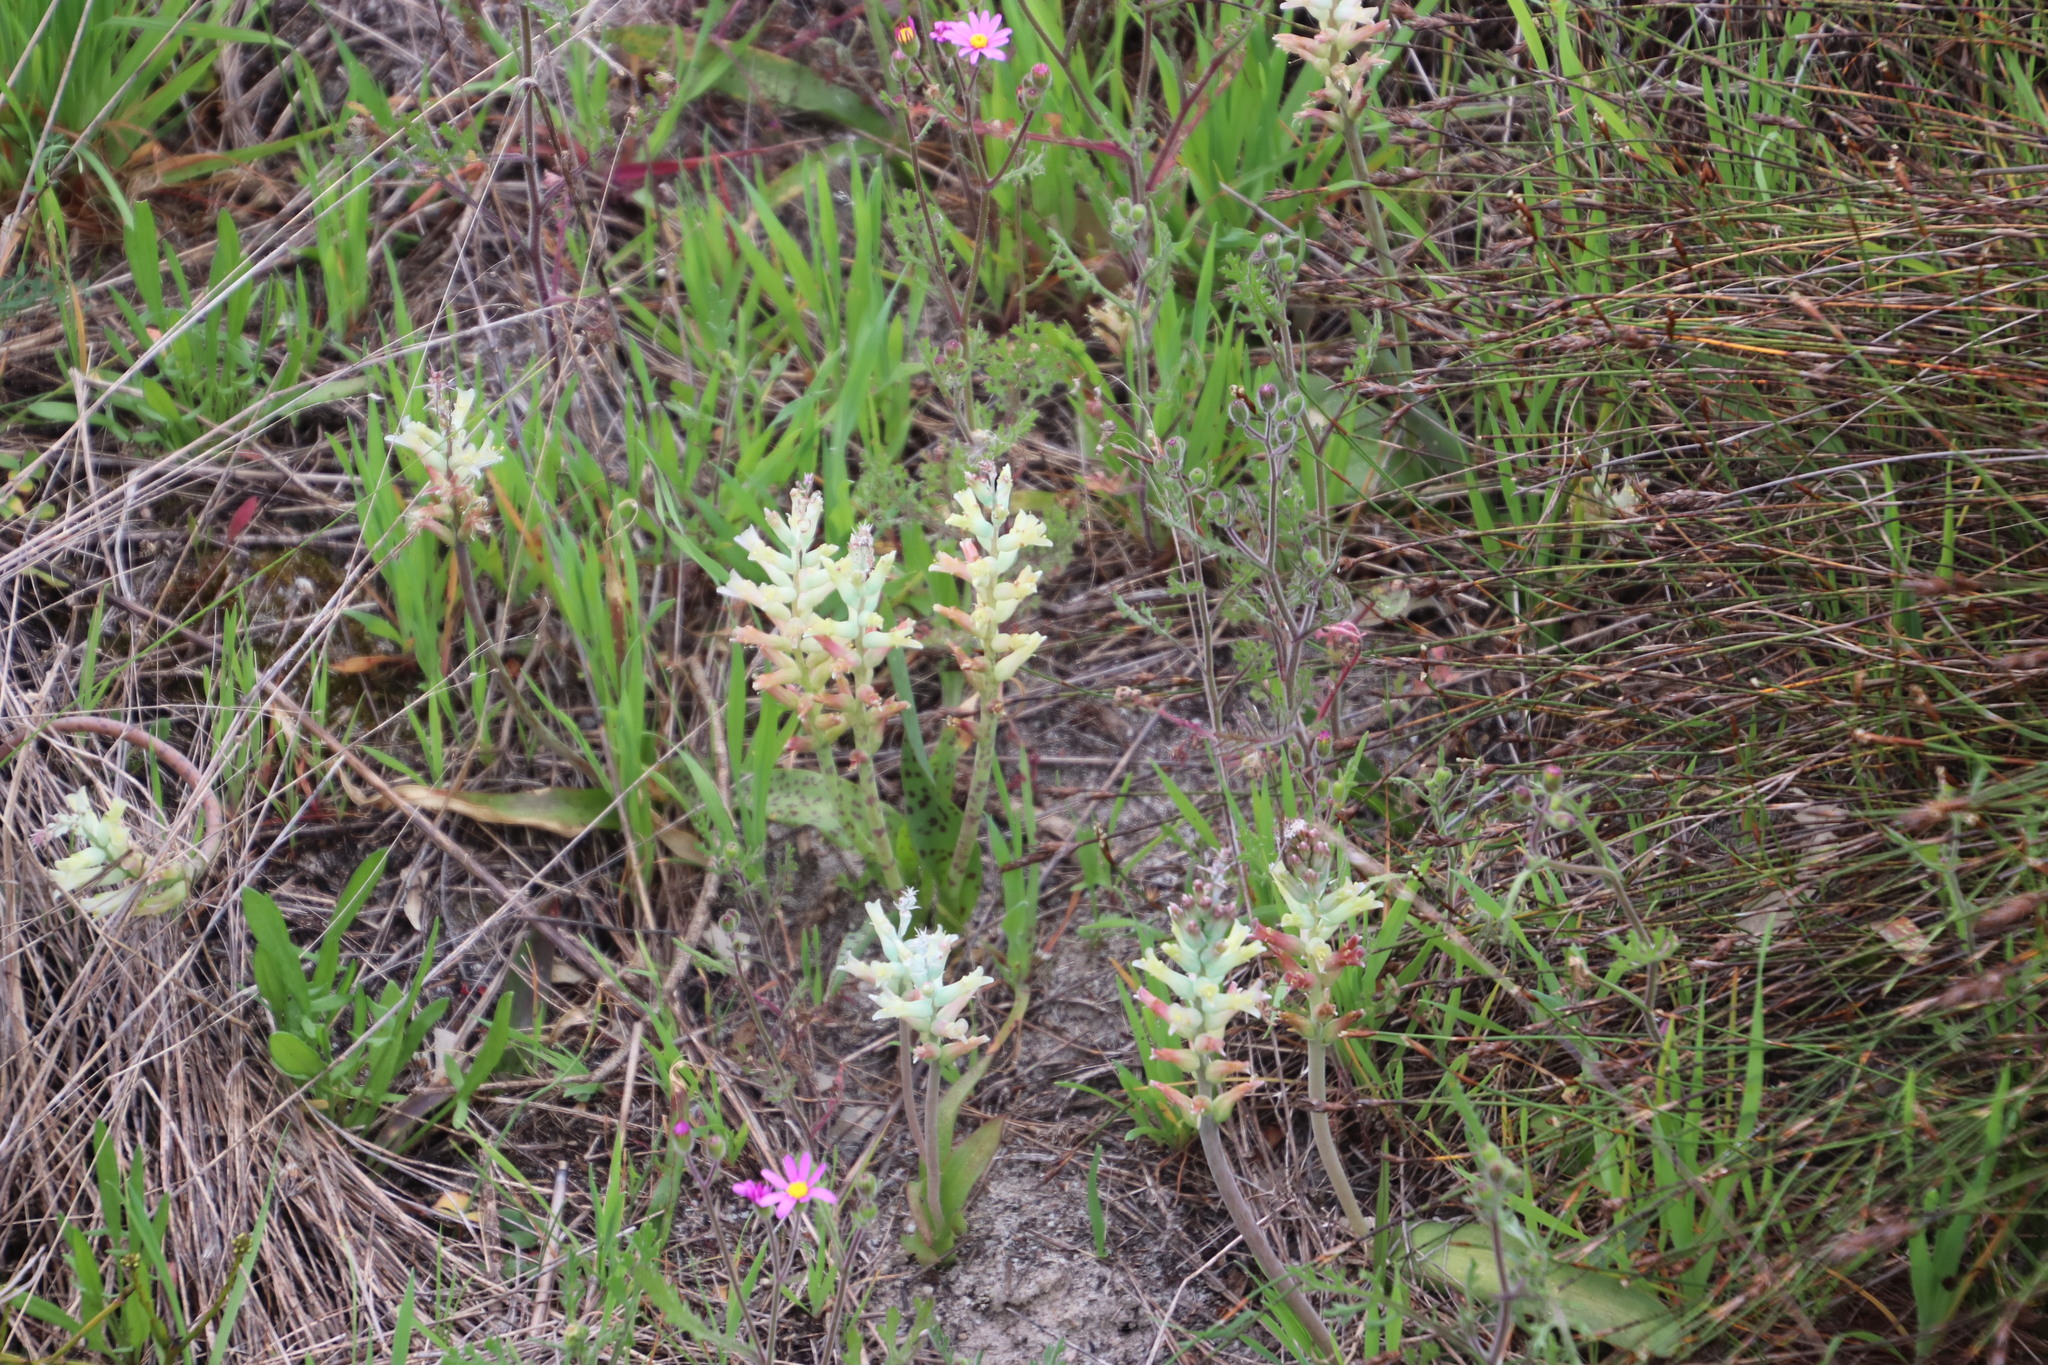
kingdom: Plantae
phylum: Tracheophyta
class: Liliopsida
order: Asparagales
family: Asparagaceae
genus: Lachenalia
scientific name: Lachenalia orchioides
